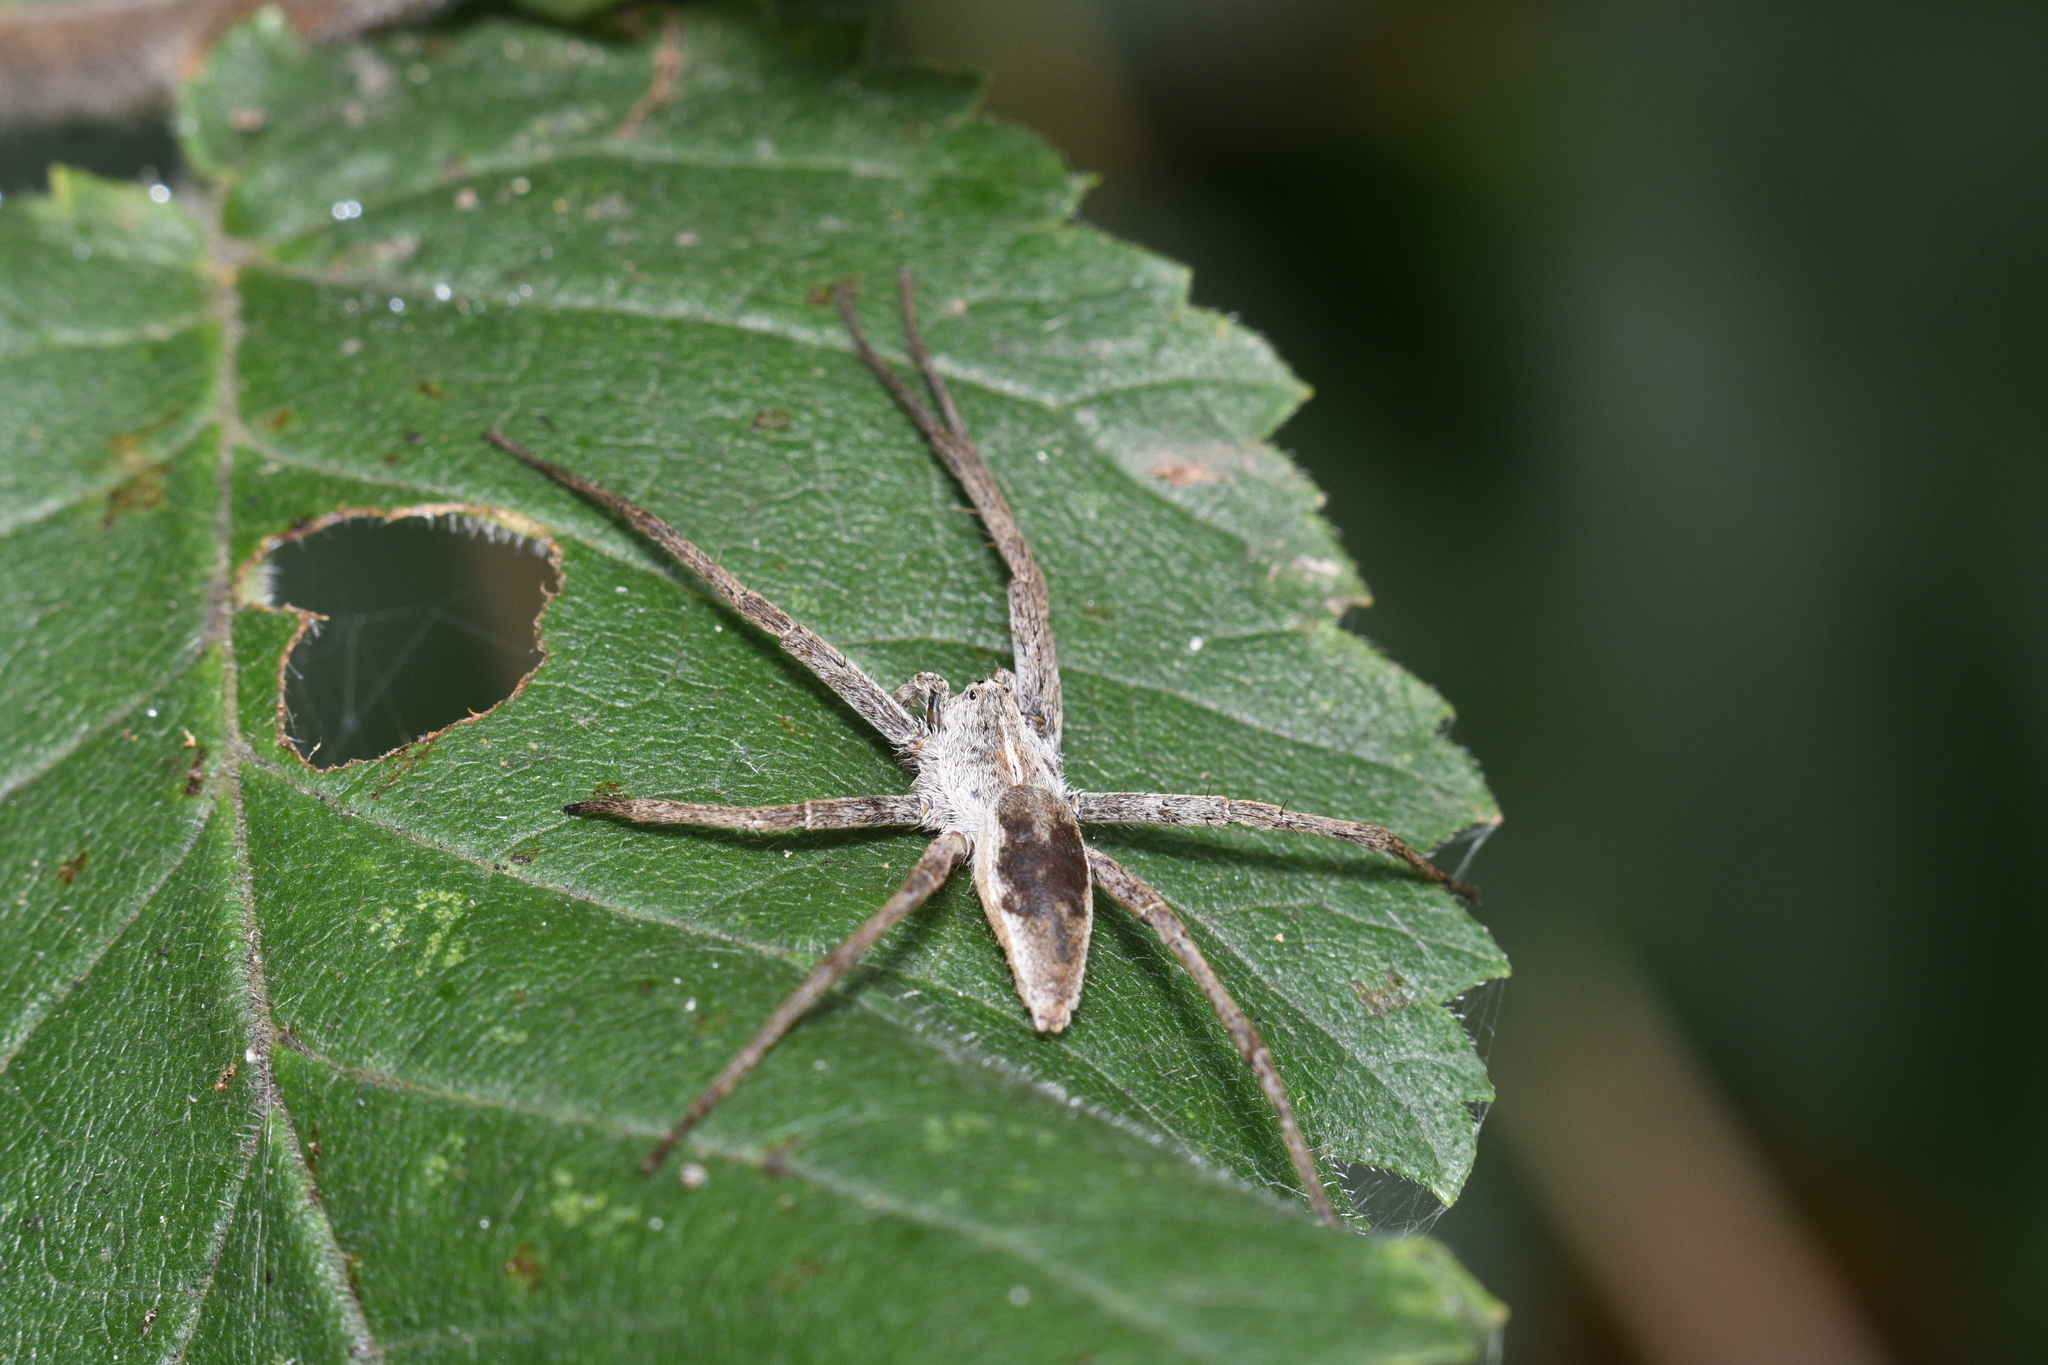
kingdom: Animalia
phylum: Arthropoda
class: Arachnida
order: Araneae
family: Pisauridae
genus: Pisaura
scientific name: Pisaura mirabilis
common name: Tent spider
